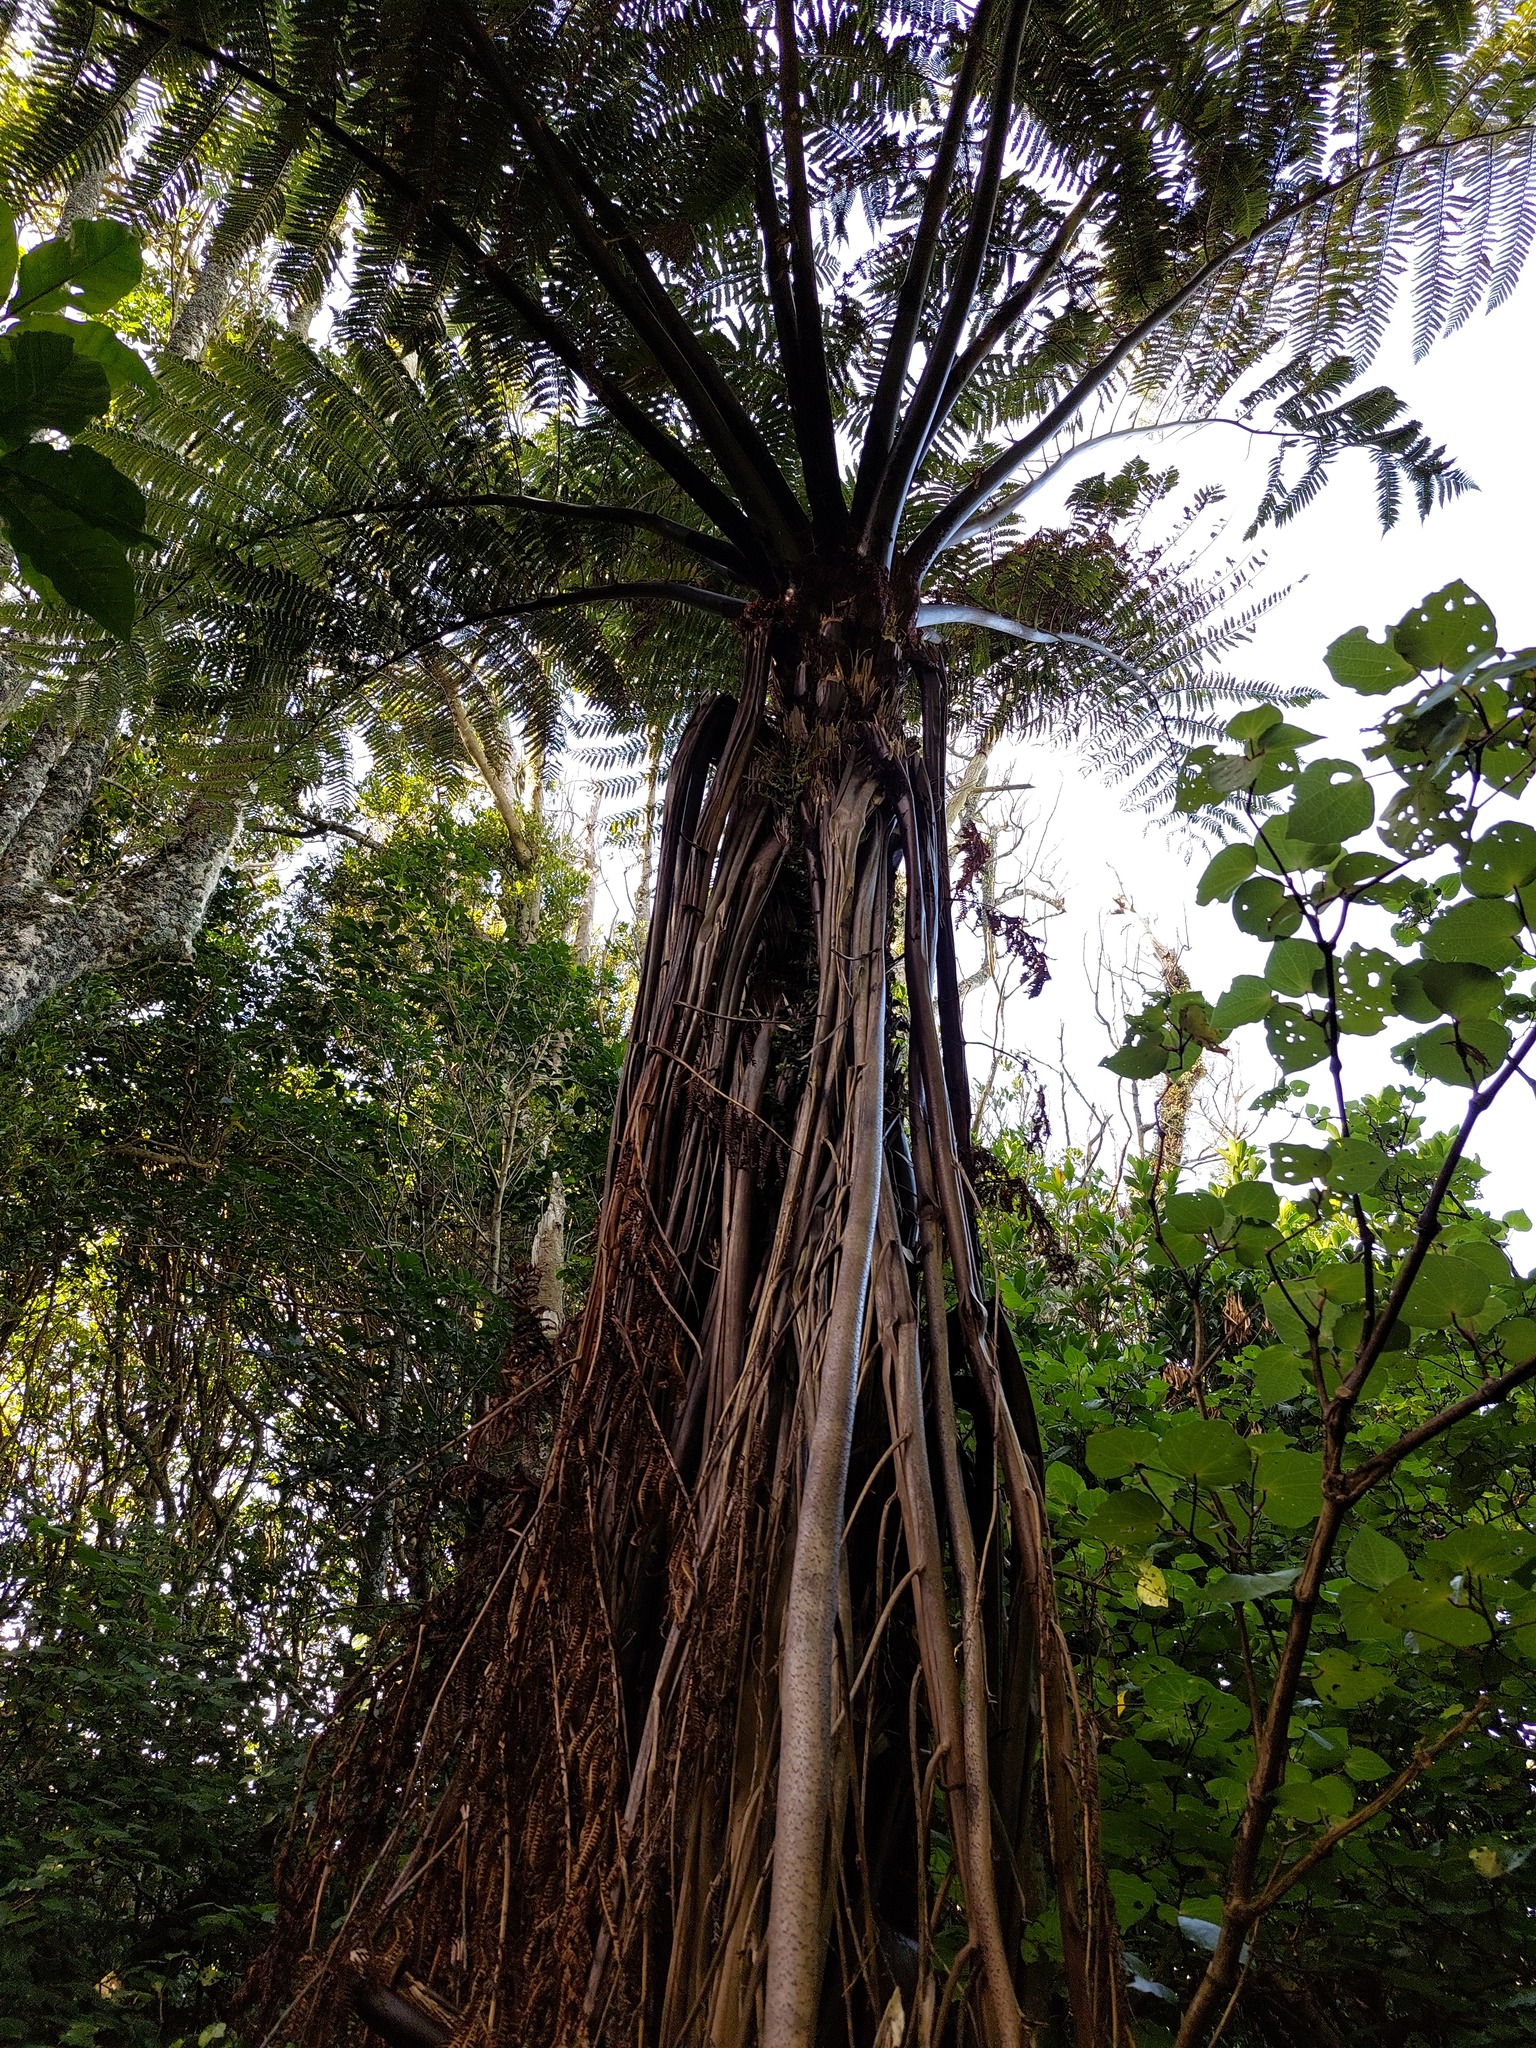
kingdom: Plantae
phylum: Tracheophyta
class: Polypodiopsida
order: Cyatheales
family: Cyatheaceae
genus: Sphaeropteris
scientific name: Sphaeropteris medullaris
